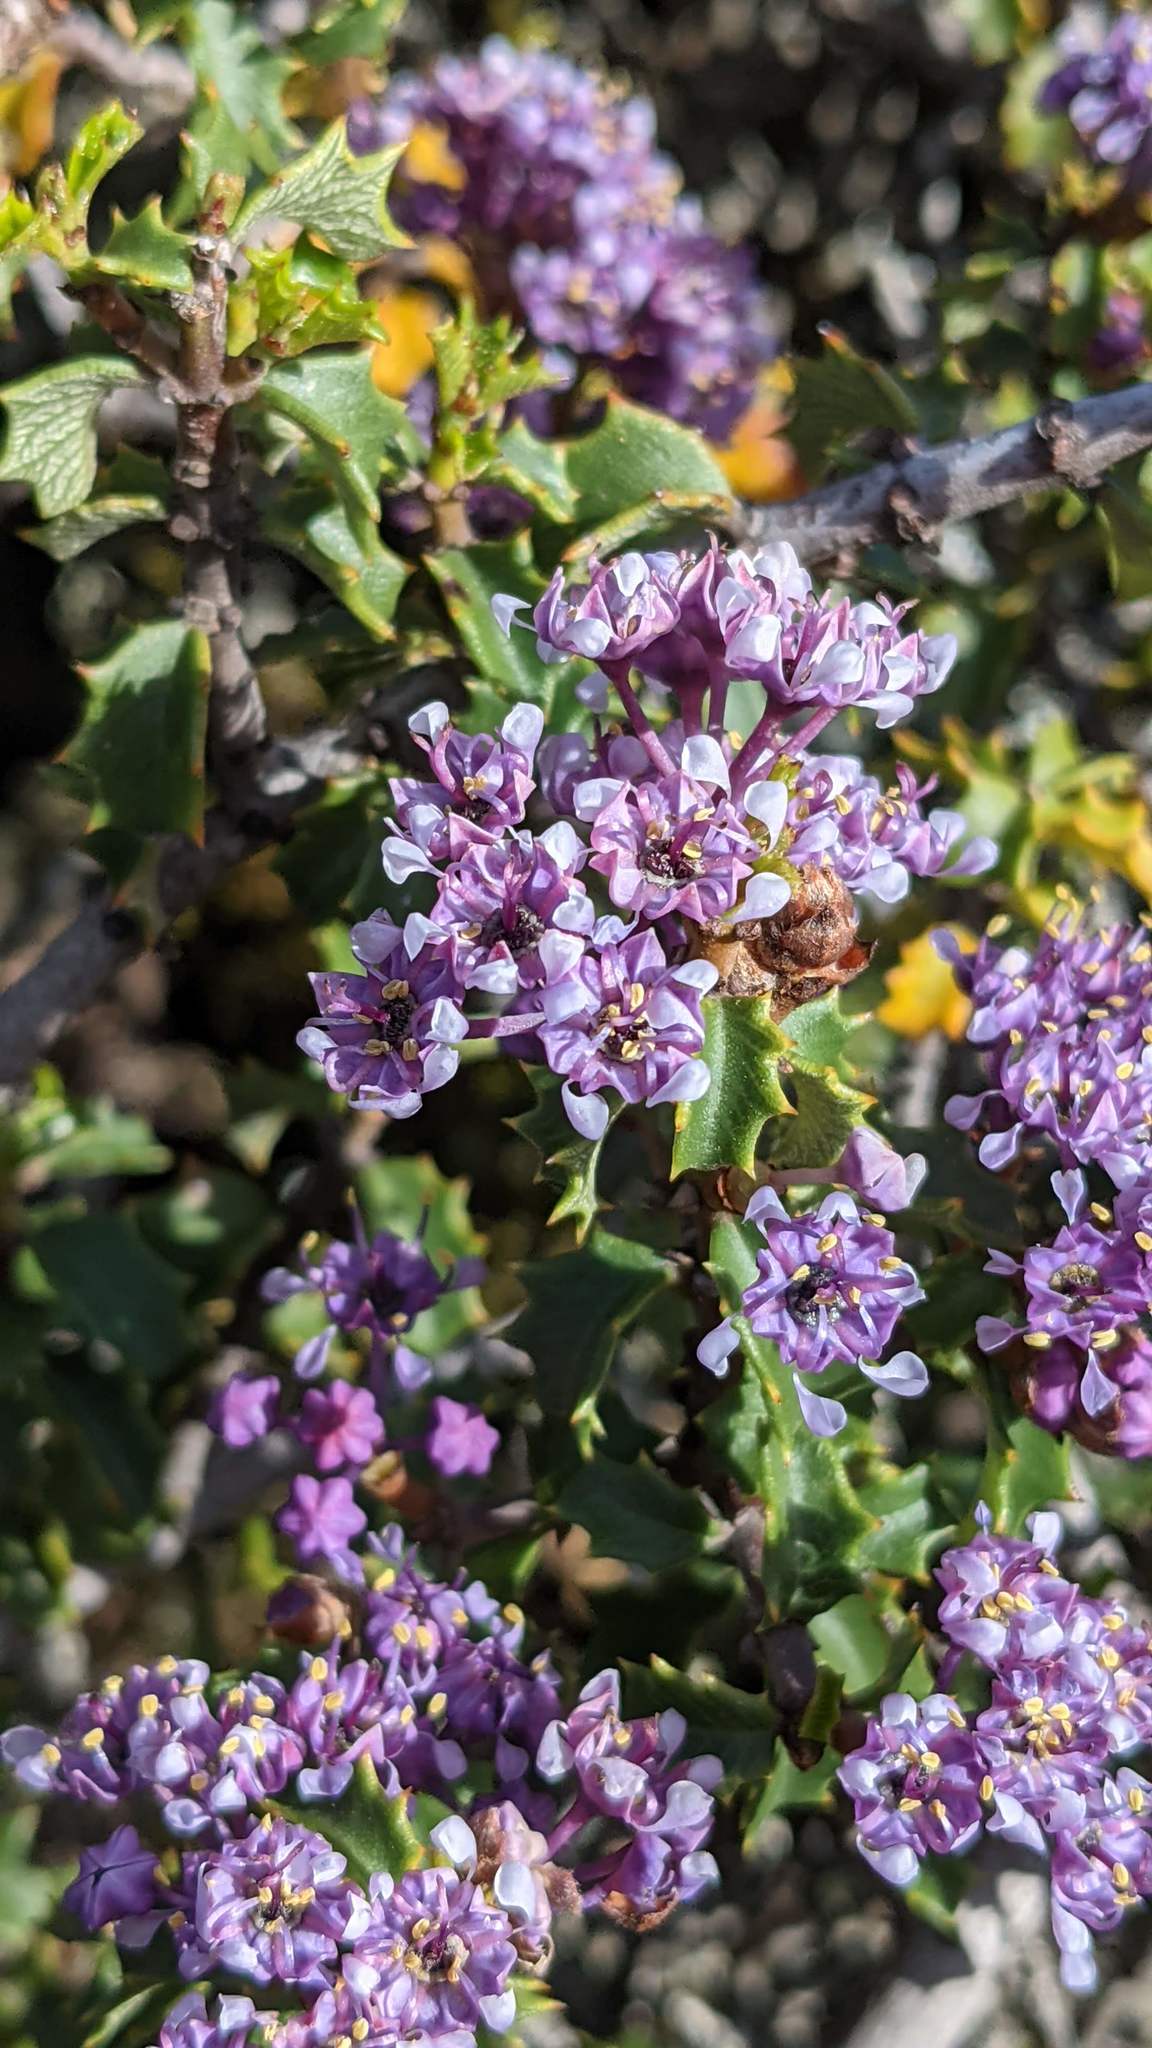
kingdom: Plantae
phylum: Tracheophyta
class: Magnoliopsida
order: Rosales
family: Rhamnaceae
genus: Ceanothus
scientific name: Ceanothus jepsonii
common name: Muskbrush
